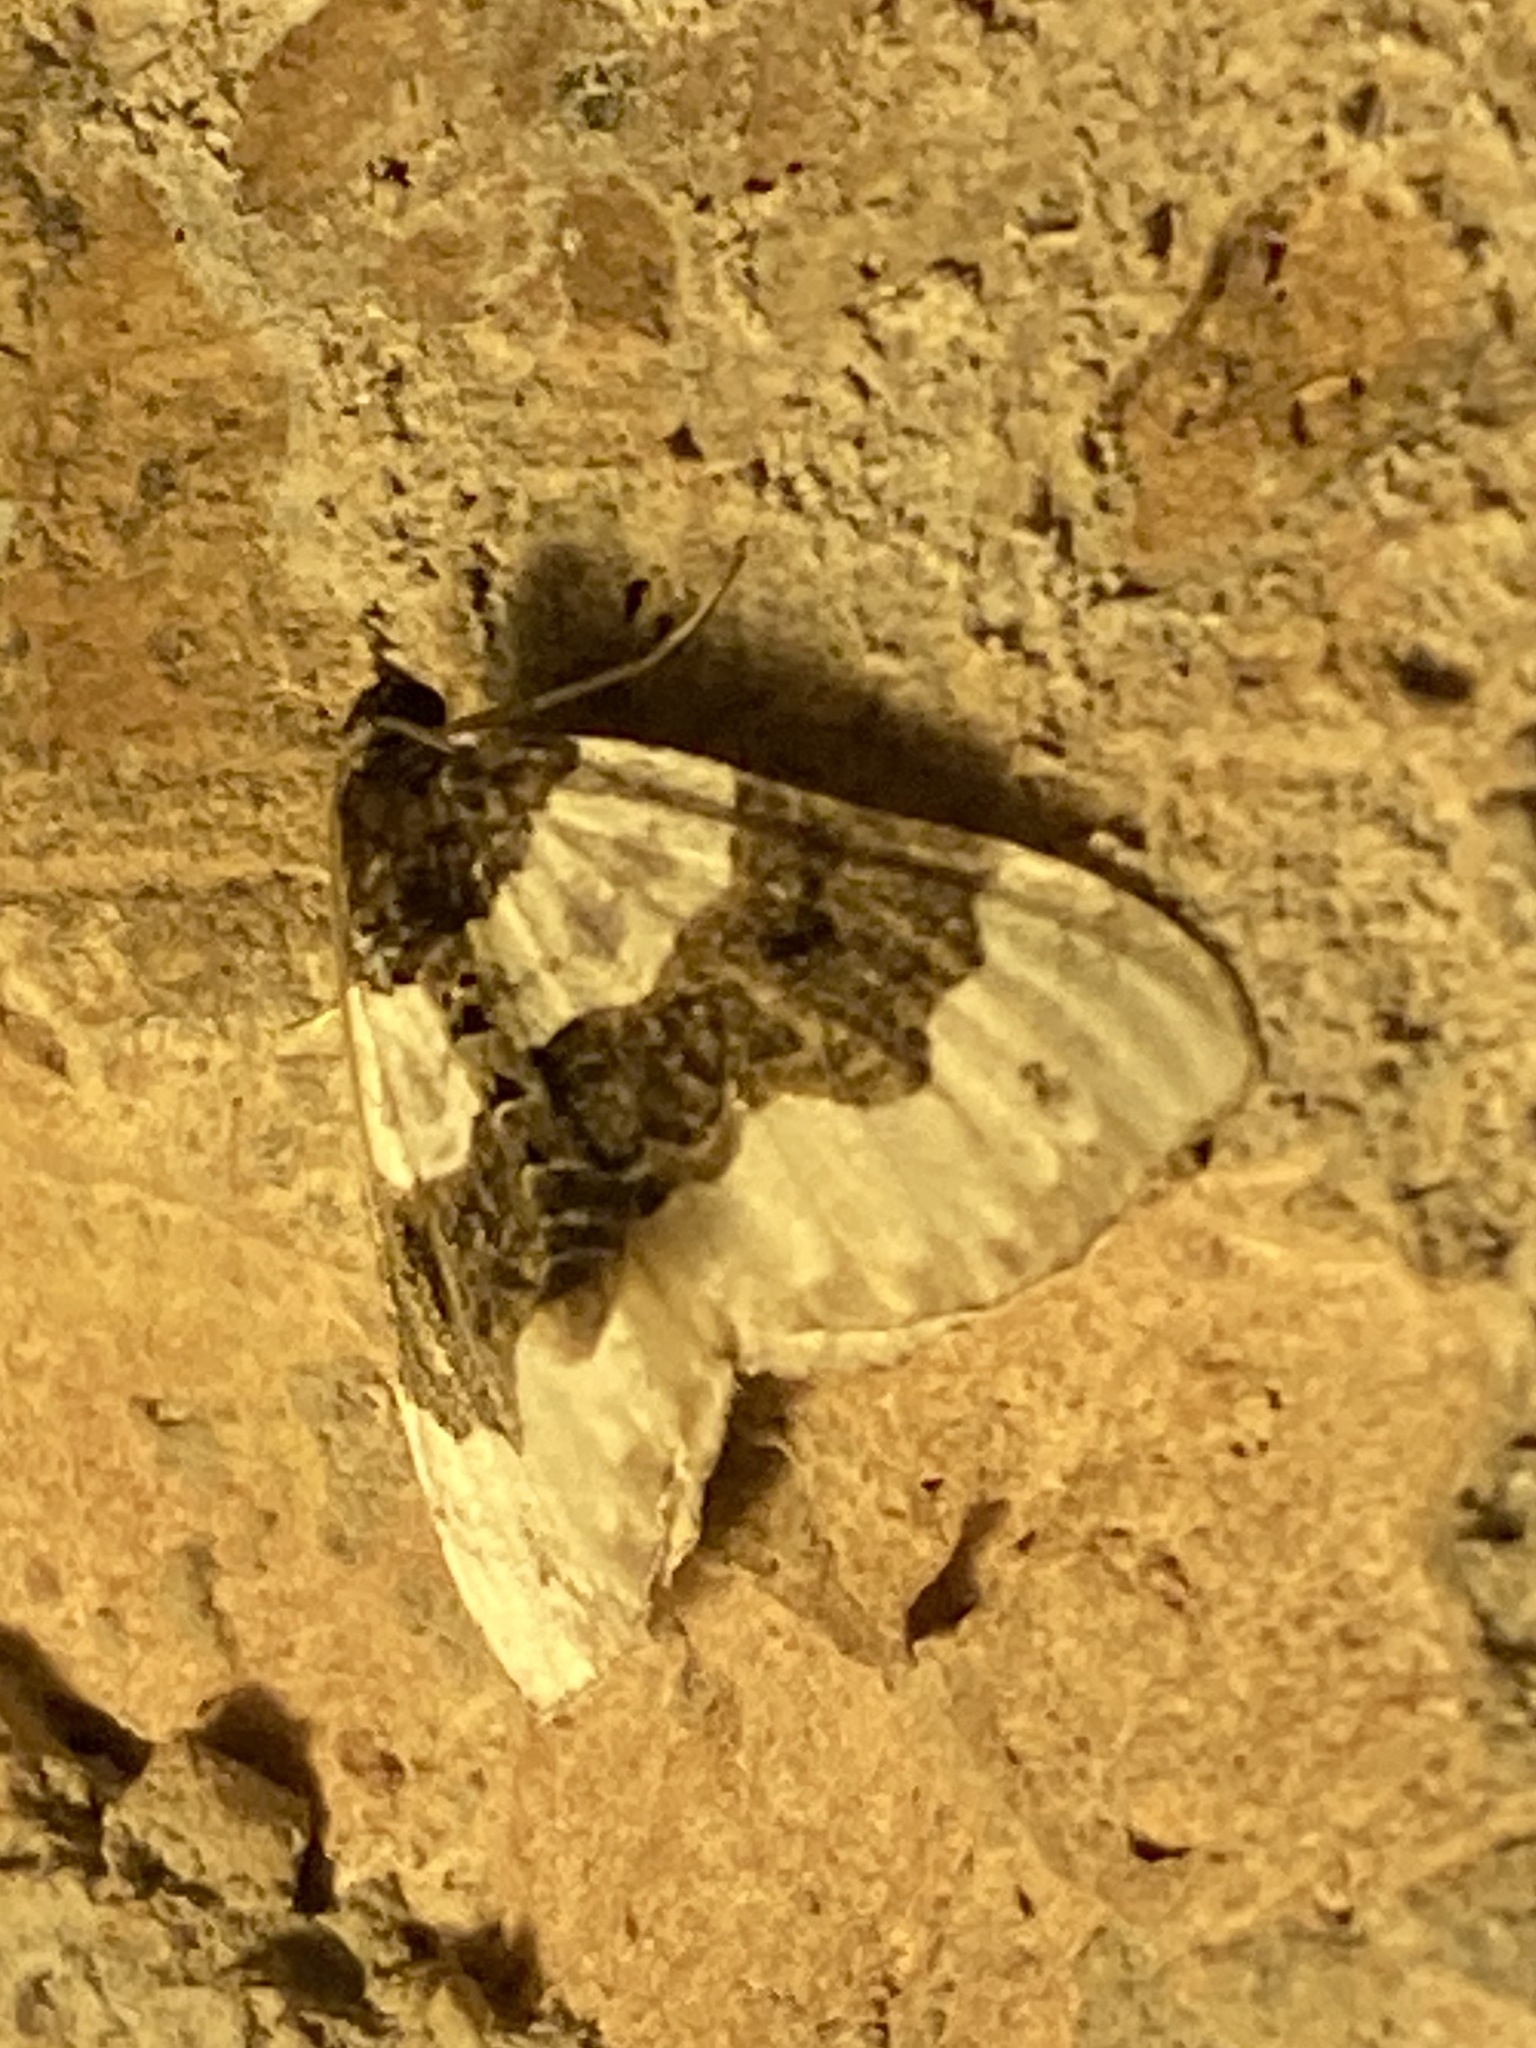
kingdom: Animalia
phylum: Arthropoda
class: Insecta
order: Lepidoptera
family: Geometridae
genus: Cosmorhoe
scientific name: Cosmorhoe ocellata
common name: Purple bar
